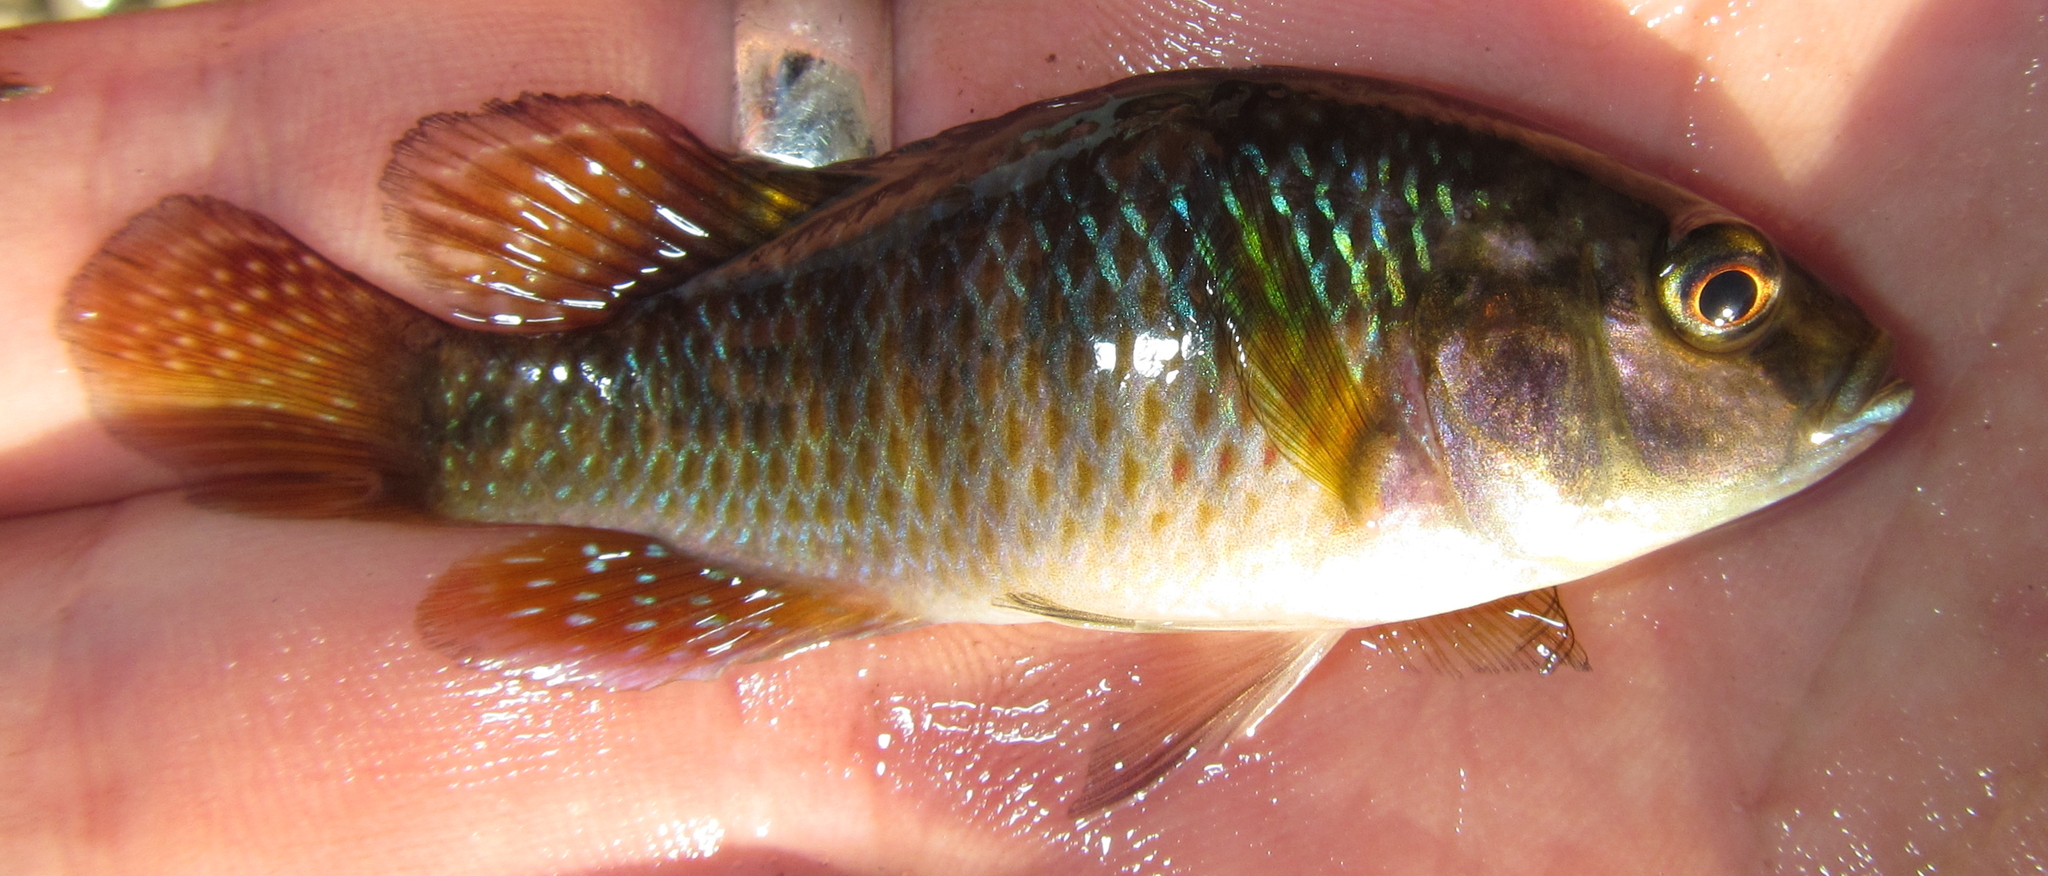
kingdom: Animalia
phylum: Chordata
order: Perciformes
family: Cichlidae
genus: Pseudocrenilabrus
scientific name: Pseudocrenilabrus philander
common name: Southern mouthbrooder
